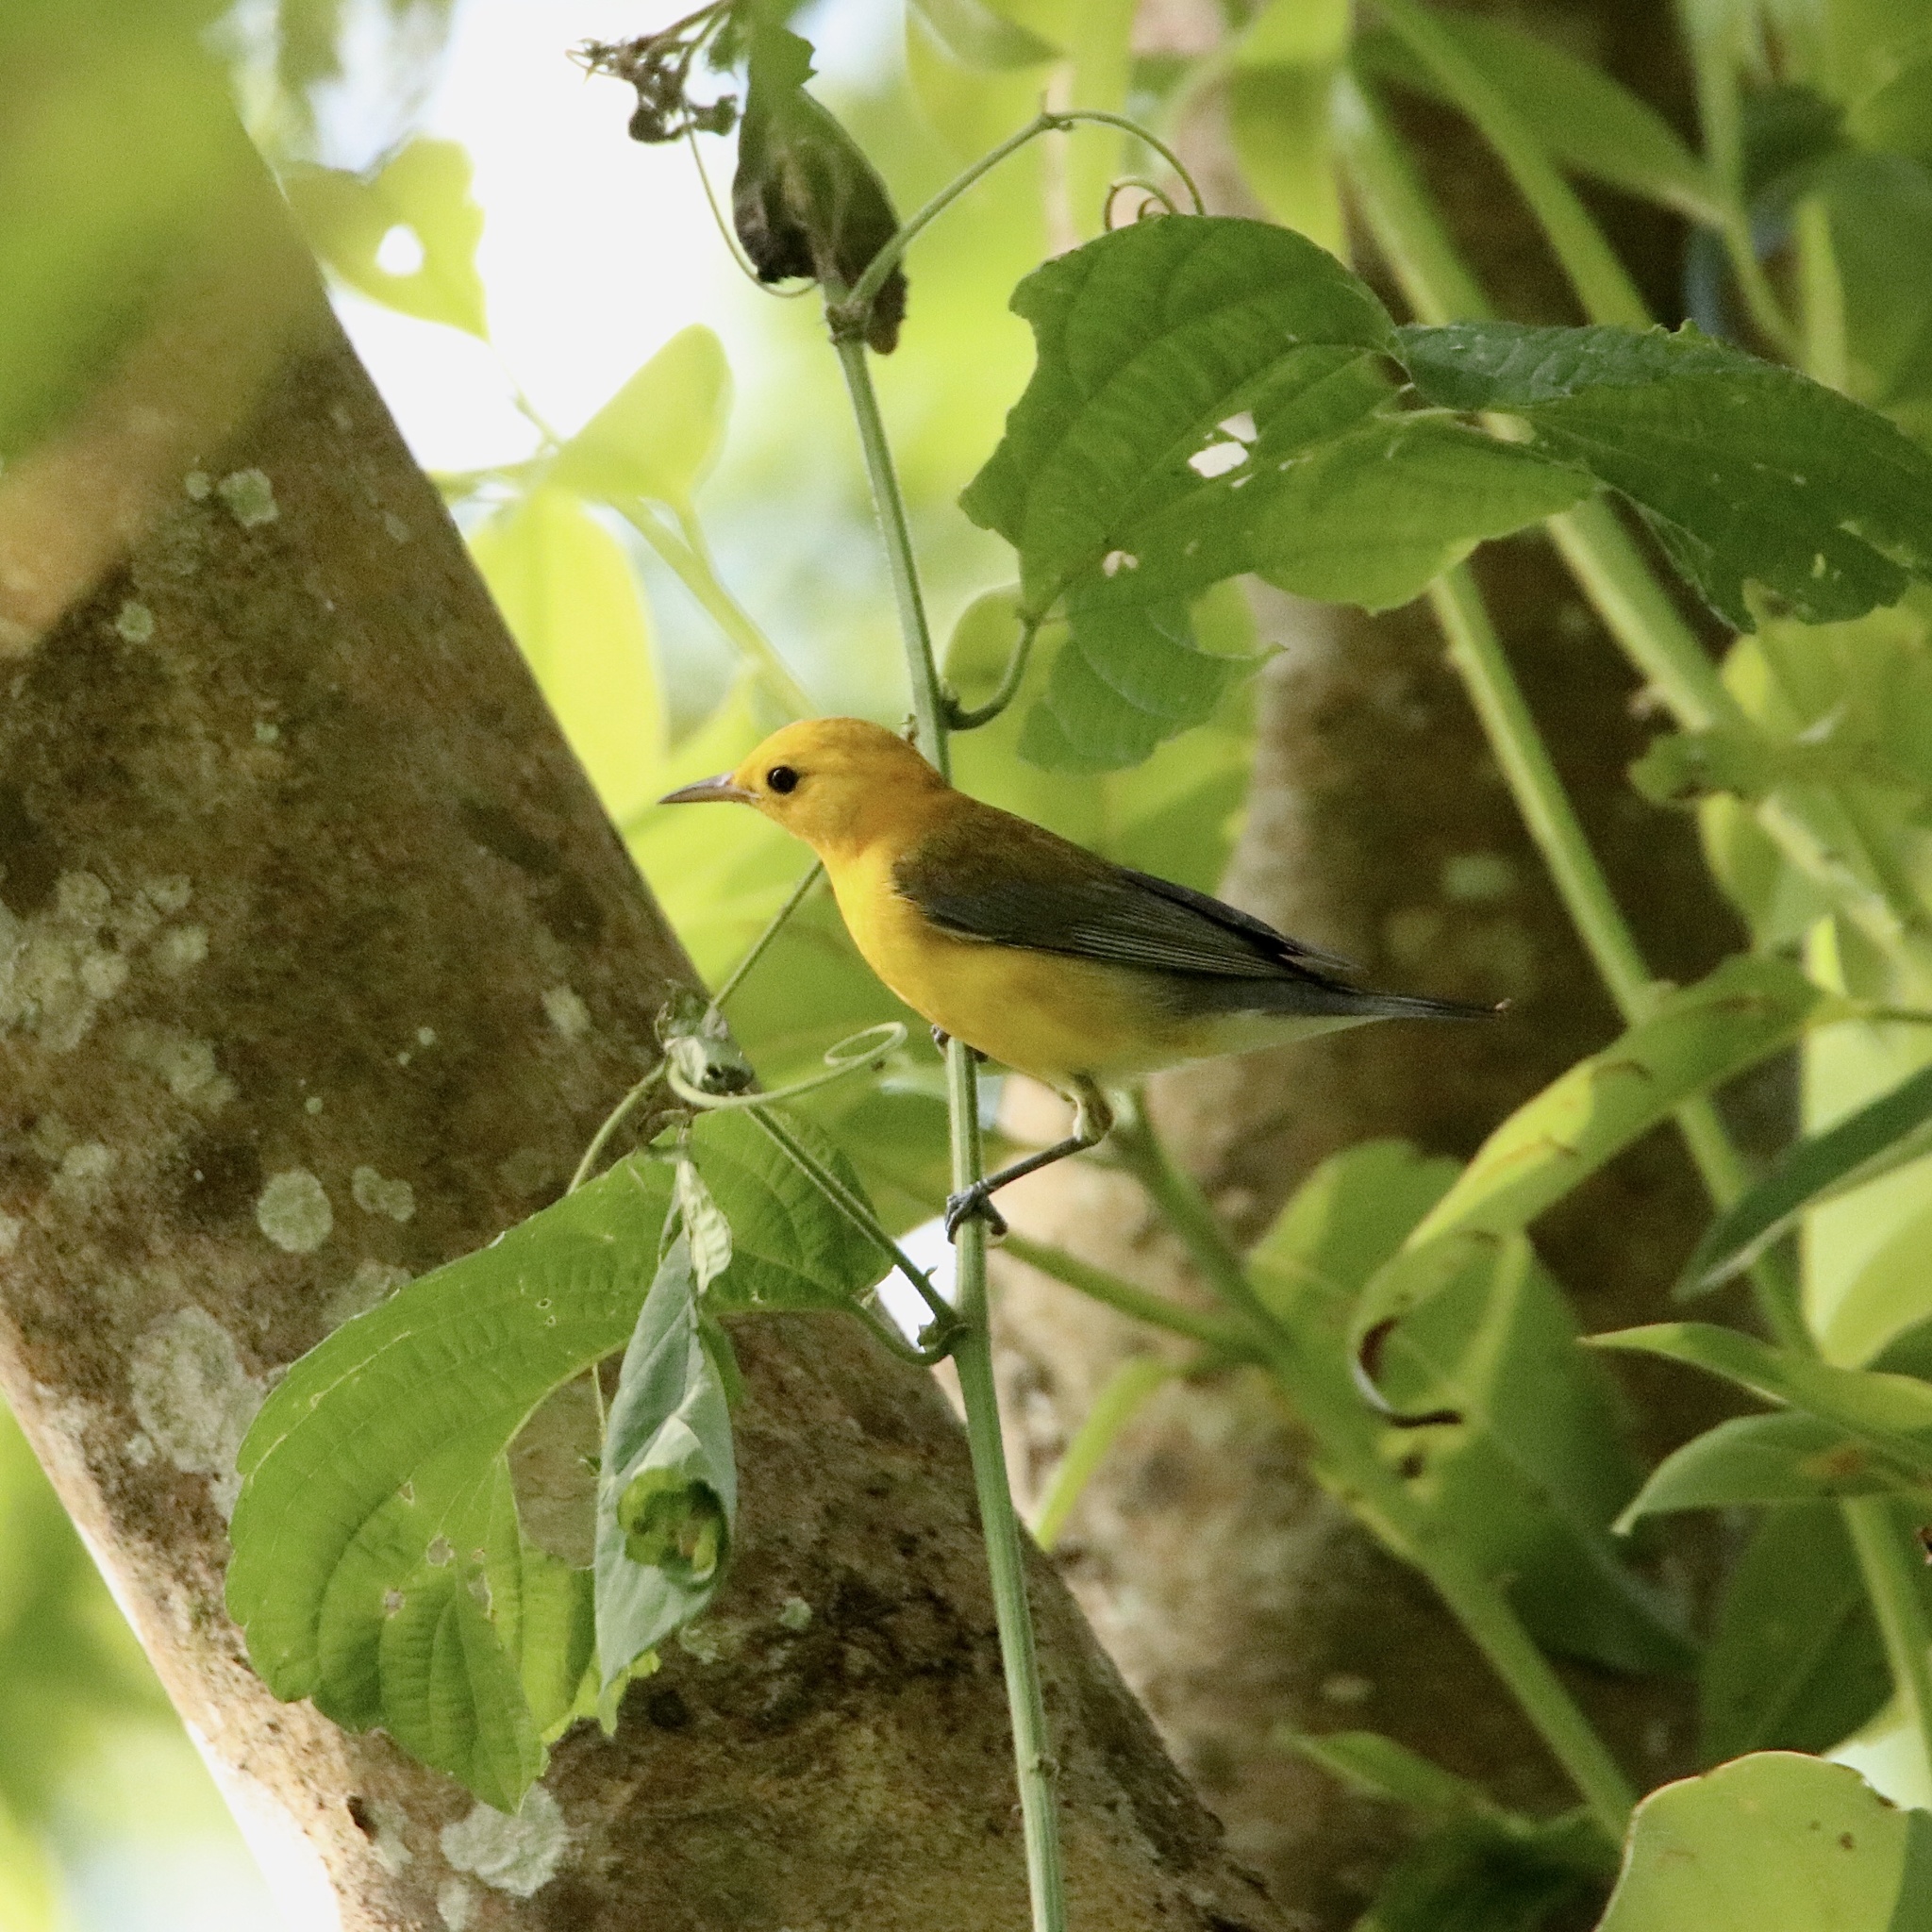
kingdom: Animalia
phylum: Chordata
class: Aves
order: Passeriformes
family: Parulidae
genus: Protonotaria
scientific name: Protonotaria citrea
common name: Prothonotary warbler
